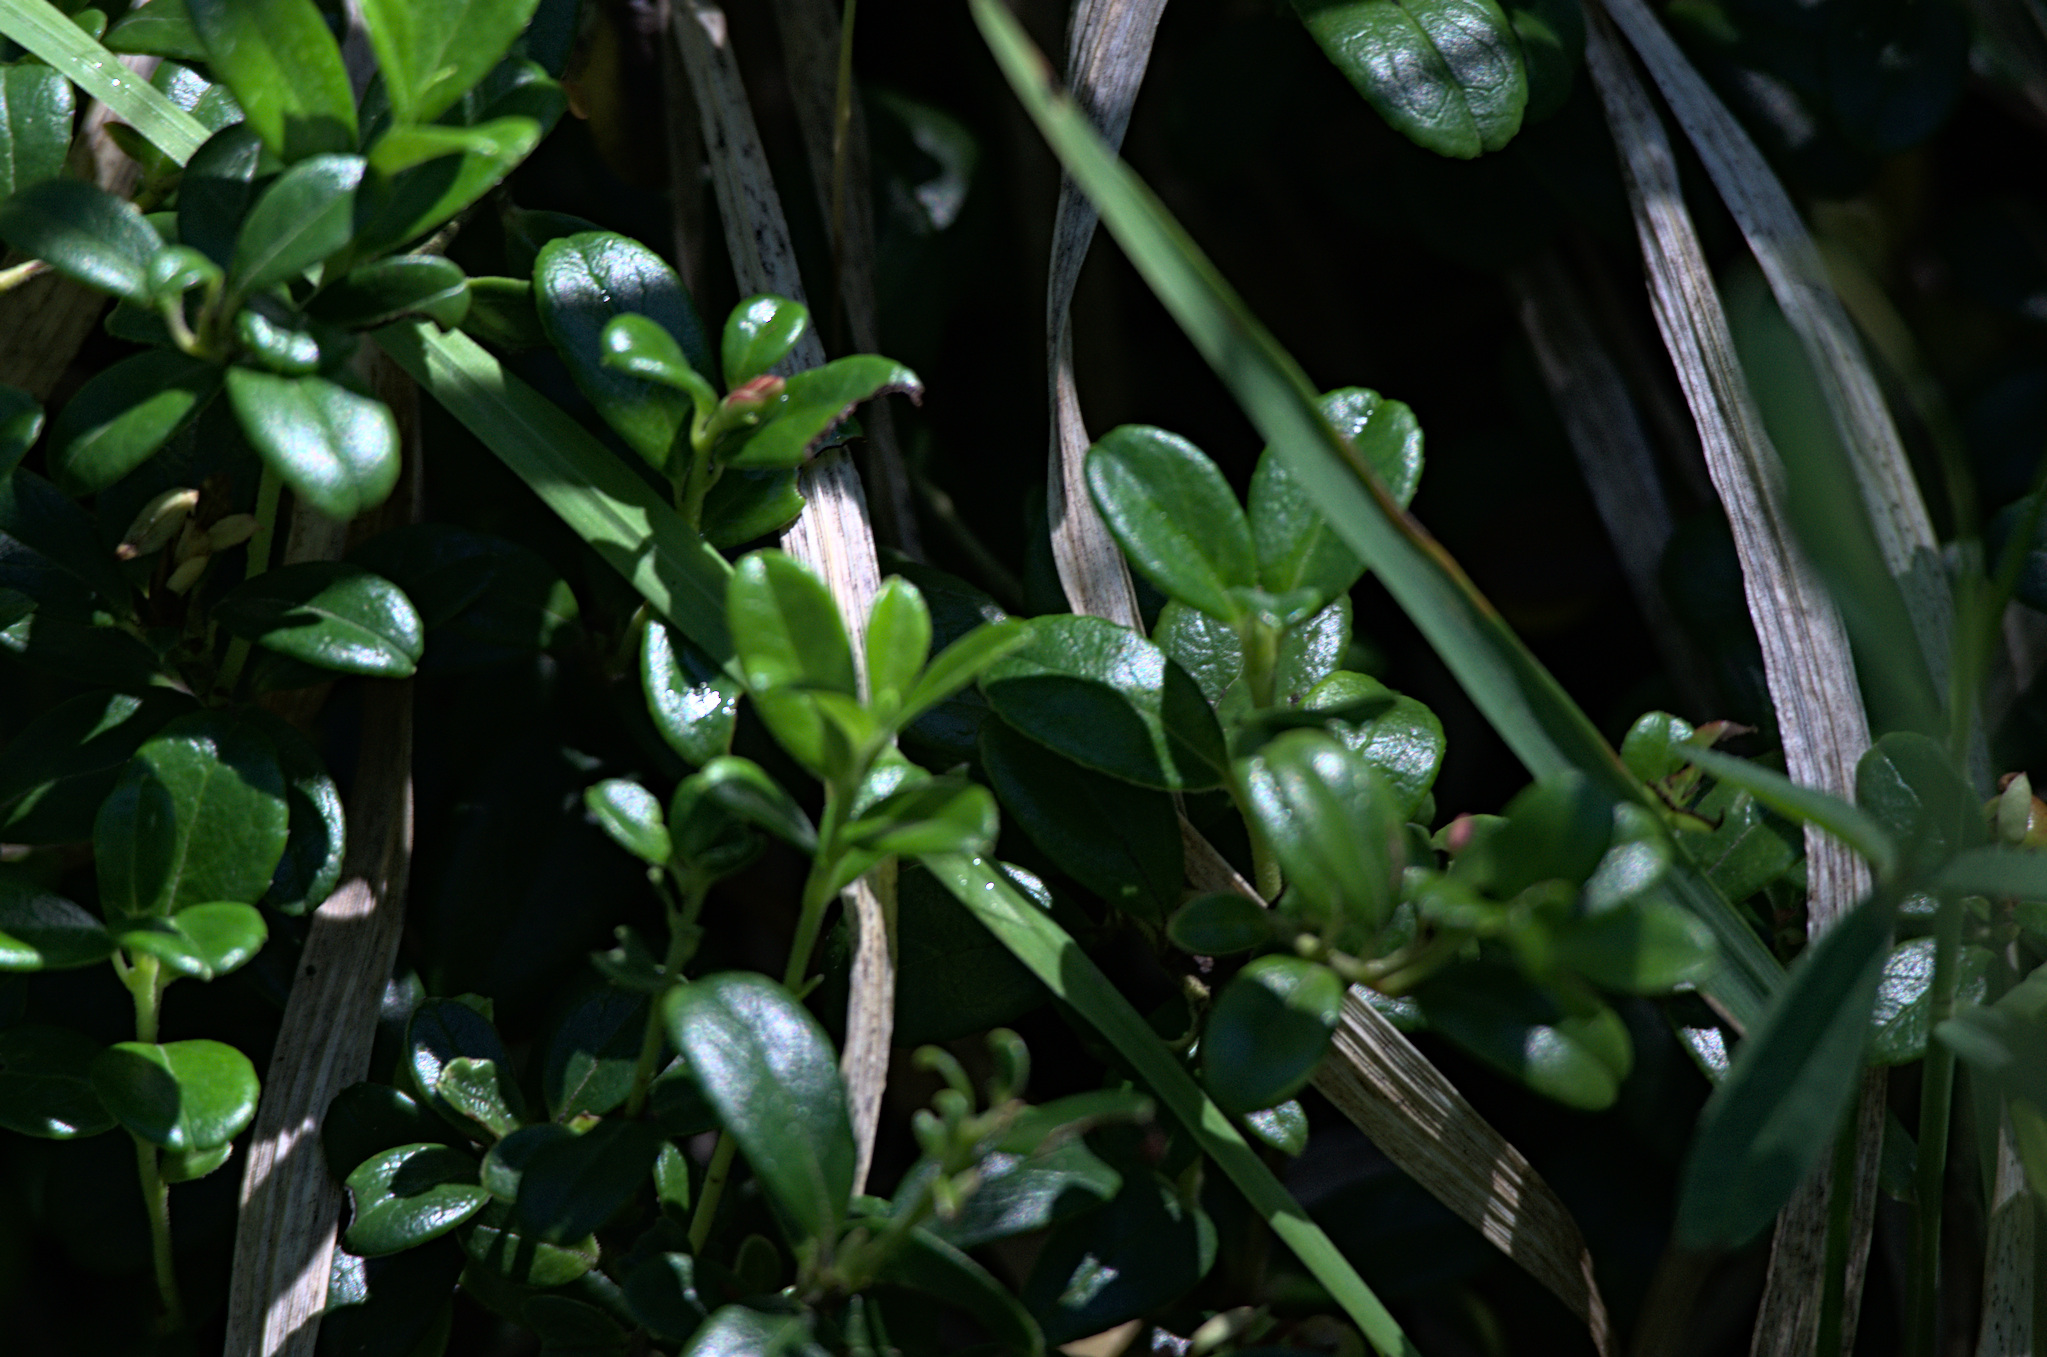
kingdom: Plantae
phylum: Tracheophyta
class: Magnoliopsida
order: Ericales
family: Ericaceae
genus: Vaccinium
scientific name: Vaccinium vitis-idaea
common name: Cowberry
